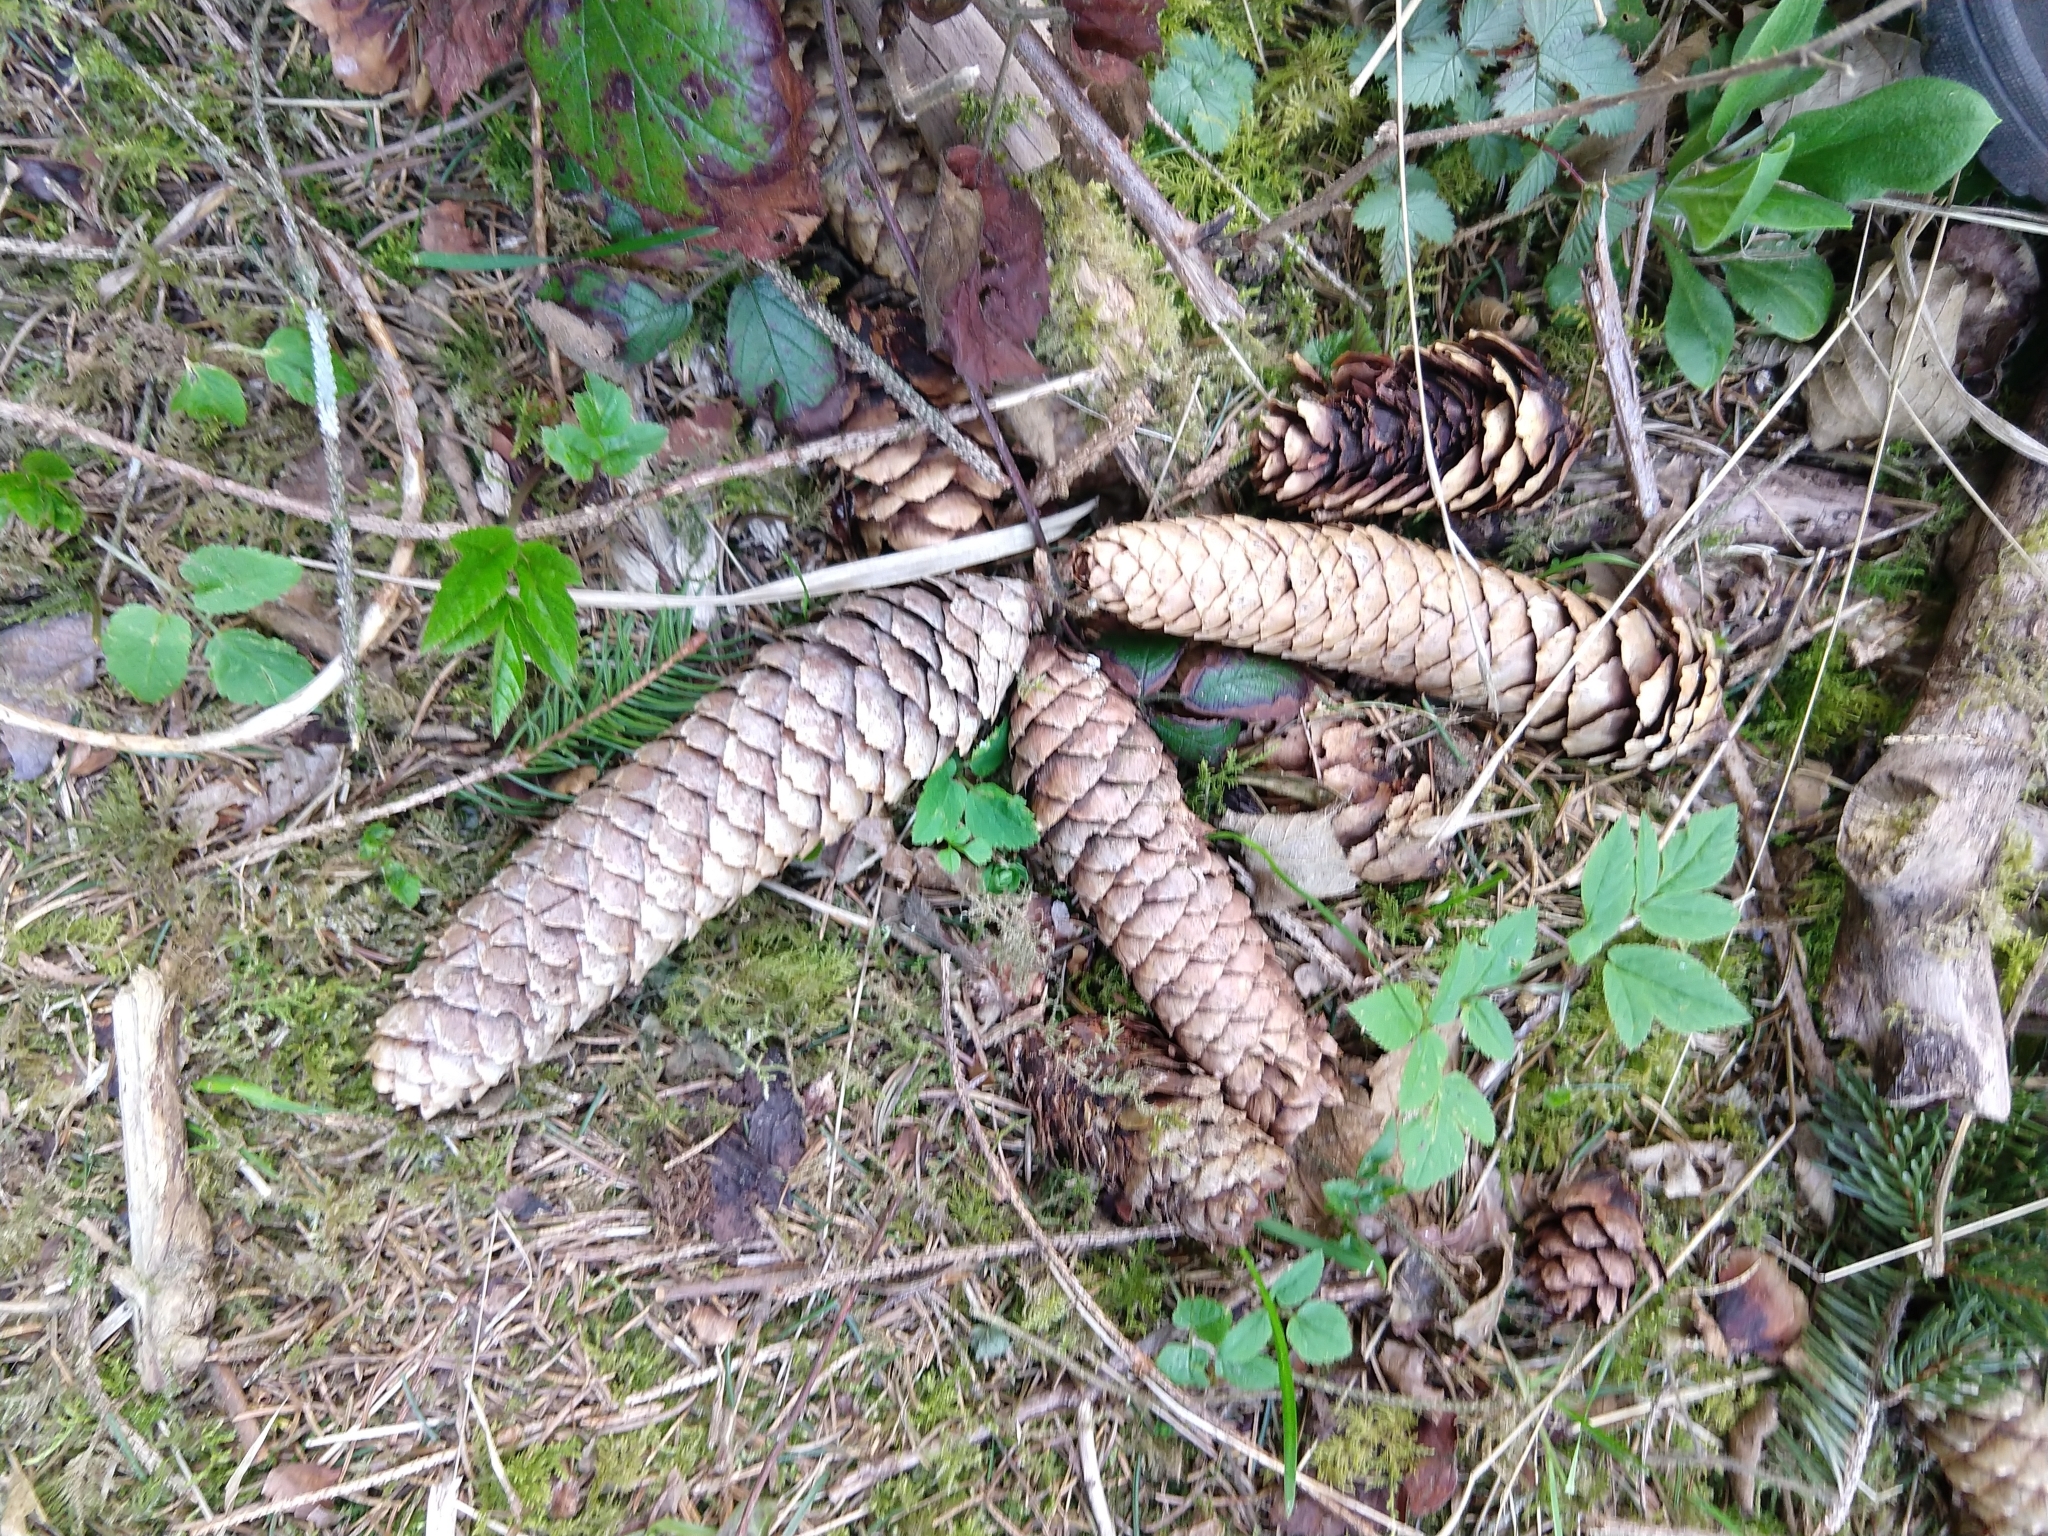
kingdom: Plantae
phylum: Tracheophyta
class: Pinopsida
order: Pinales
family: Pinaceae
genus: Picea
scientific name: Picea abies
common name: Norway spruce
